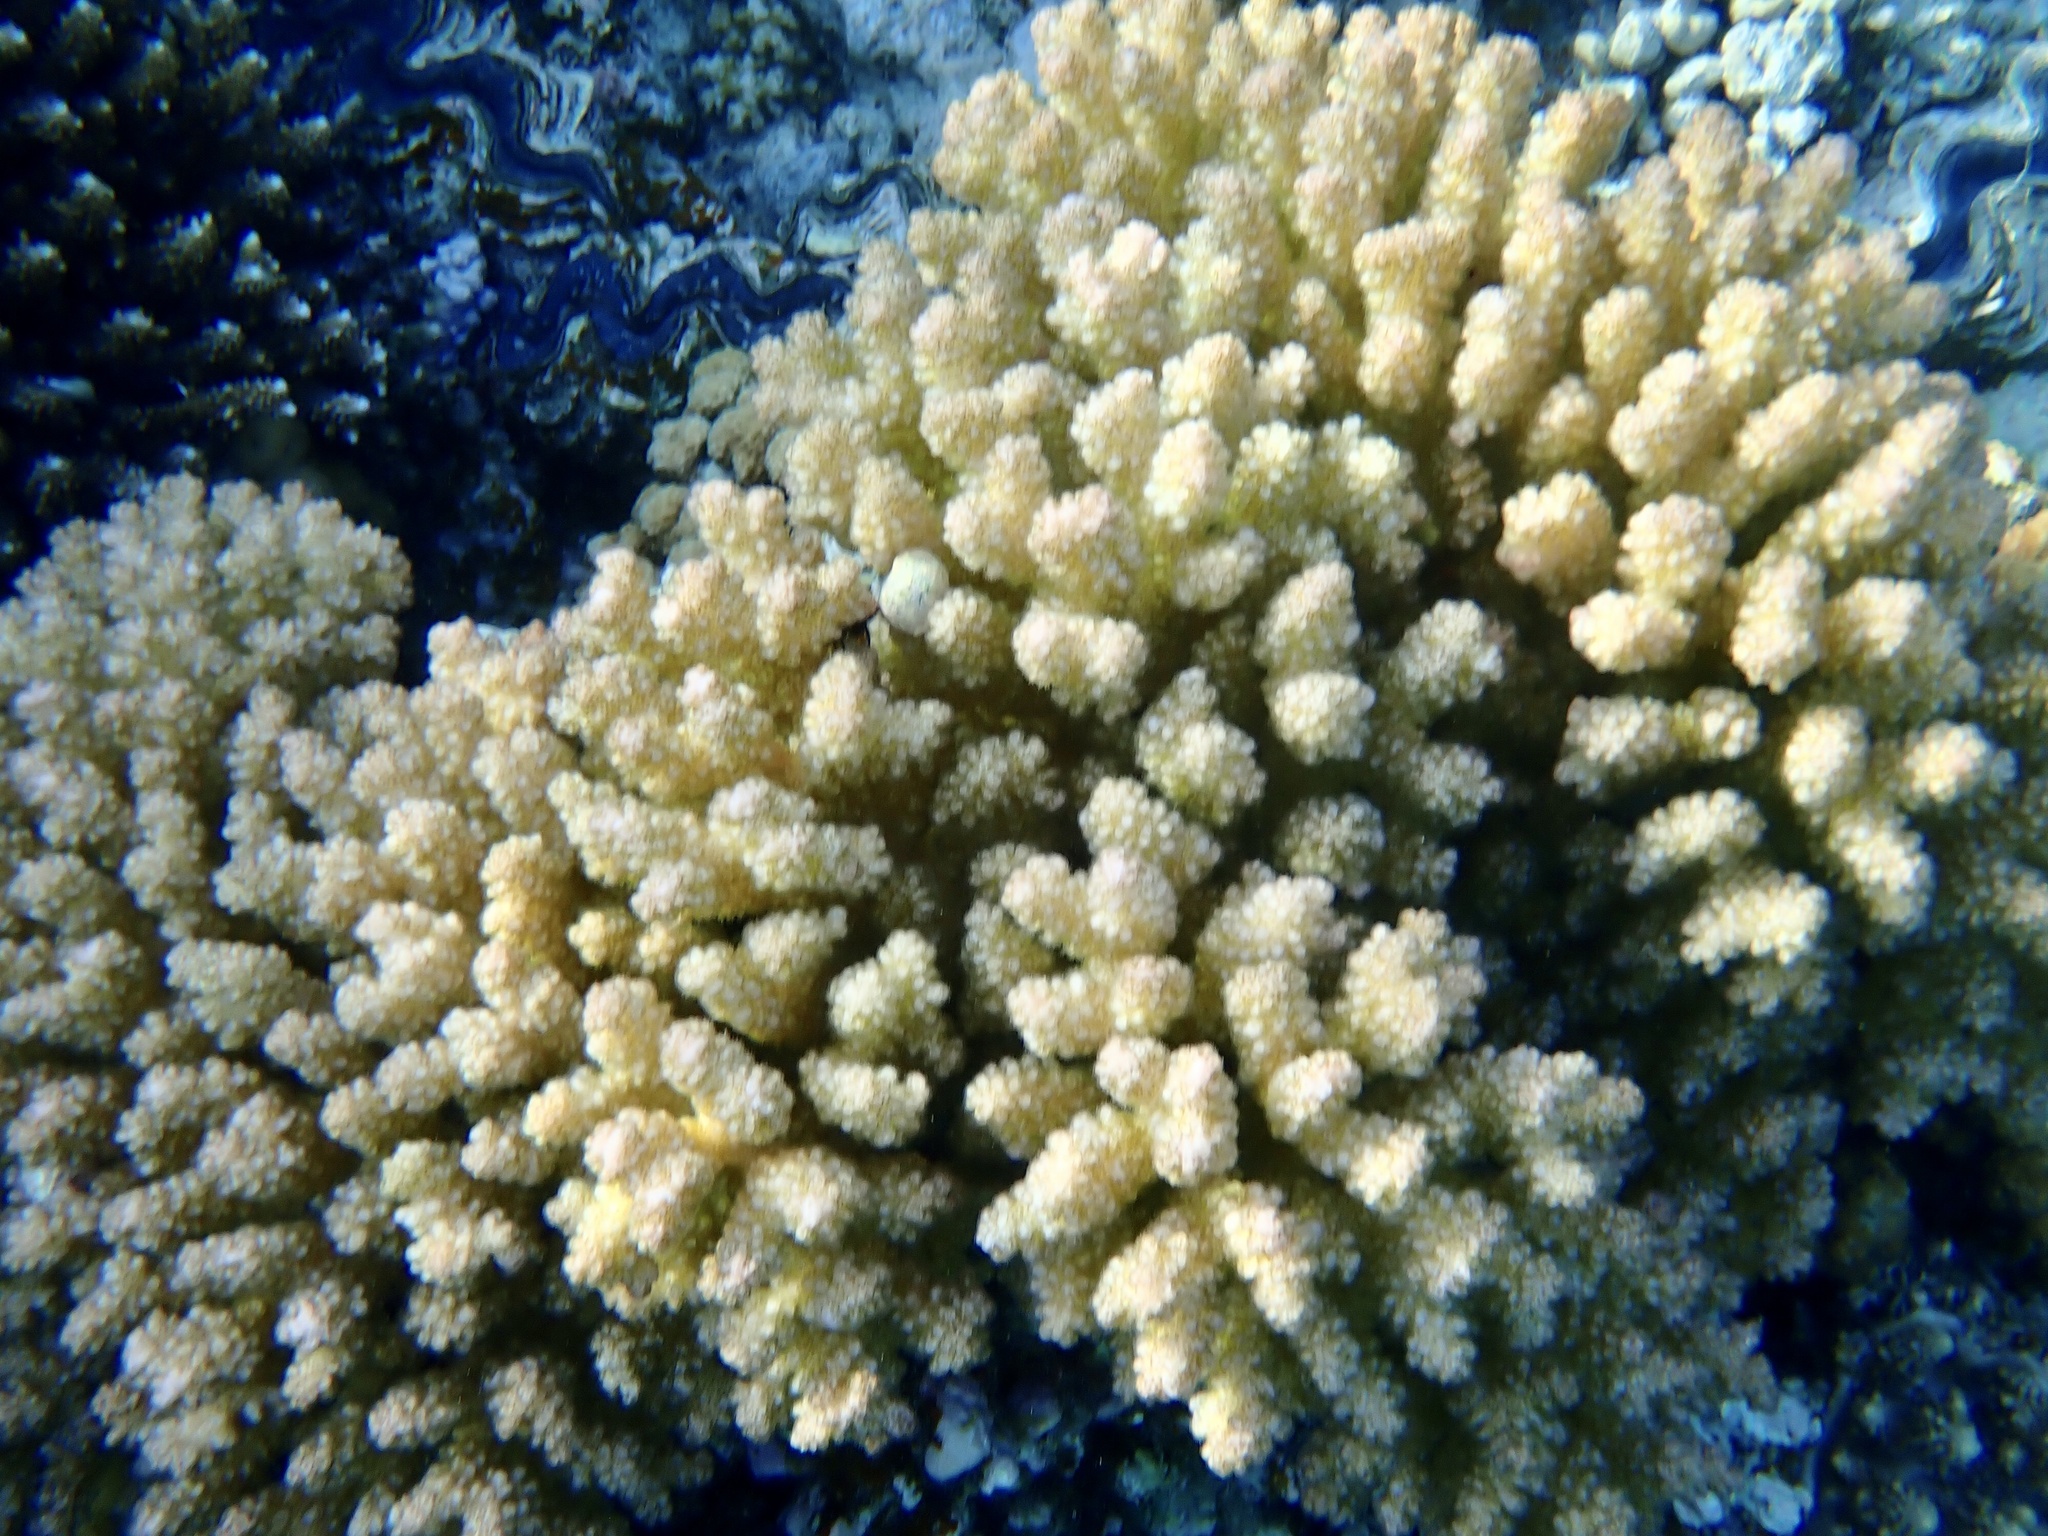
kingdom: Animalia
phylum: Cnidaria
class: Anthozoa
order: Scleractinia
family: Pocilloporidae
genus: Pocillopora
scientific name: Pocillopora verrucosa
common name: Cauliflower coral
